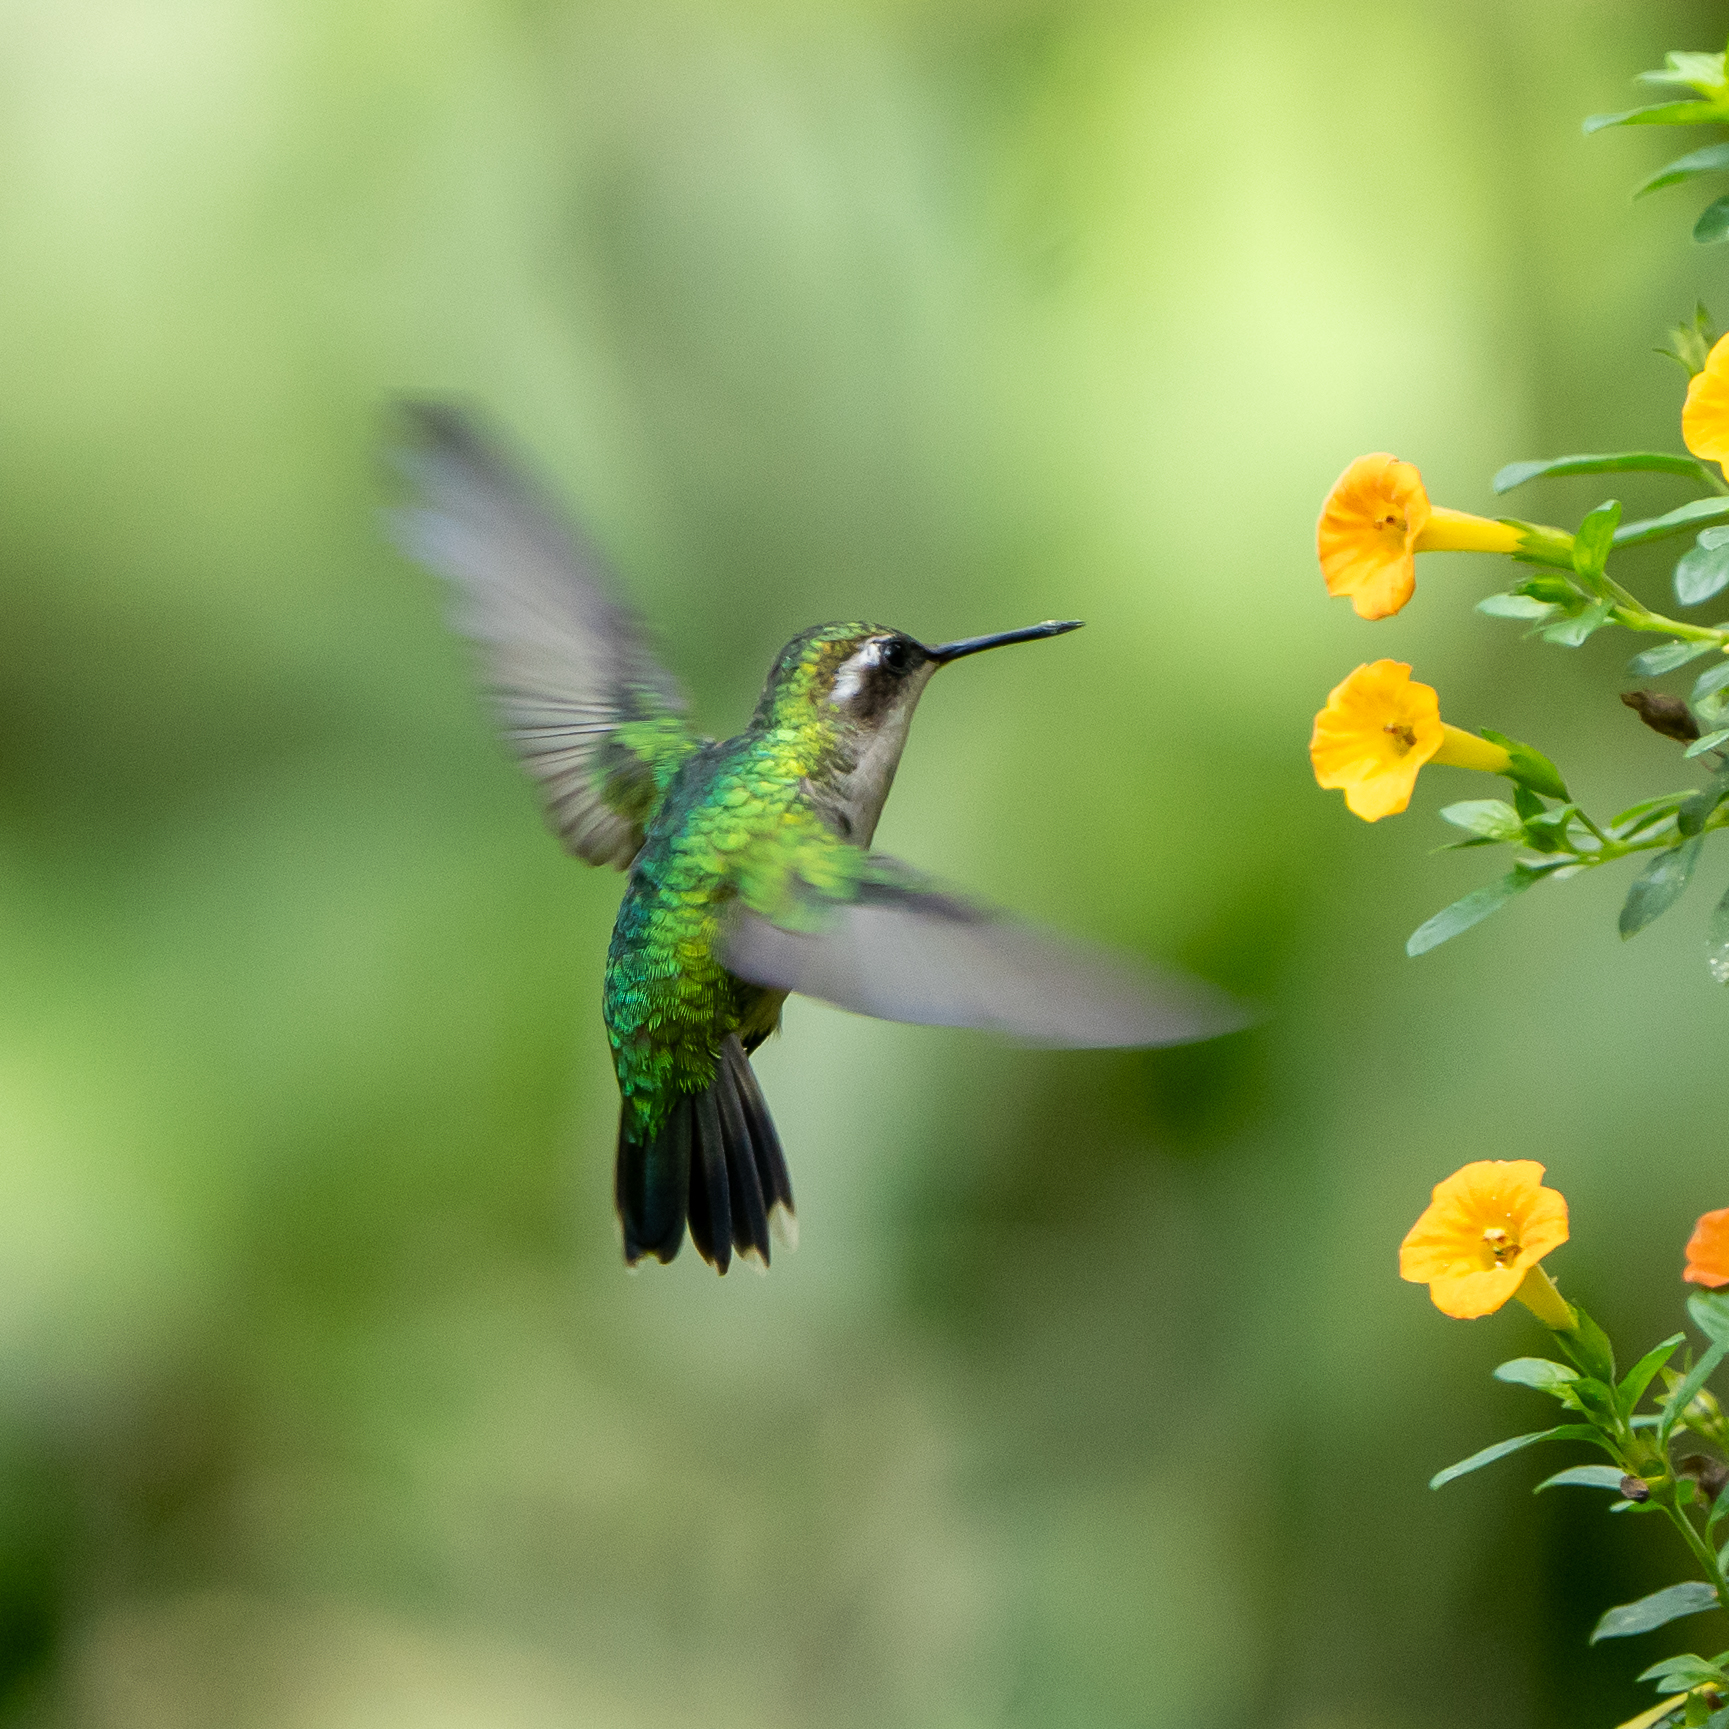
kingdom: Animalia
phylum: Chordata
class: Aves
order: Apodiformes
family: Trochilidae
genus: Chlorostilbon
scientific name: Chlorostilbon melanorhynchus
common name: Western emerald
